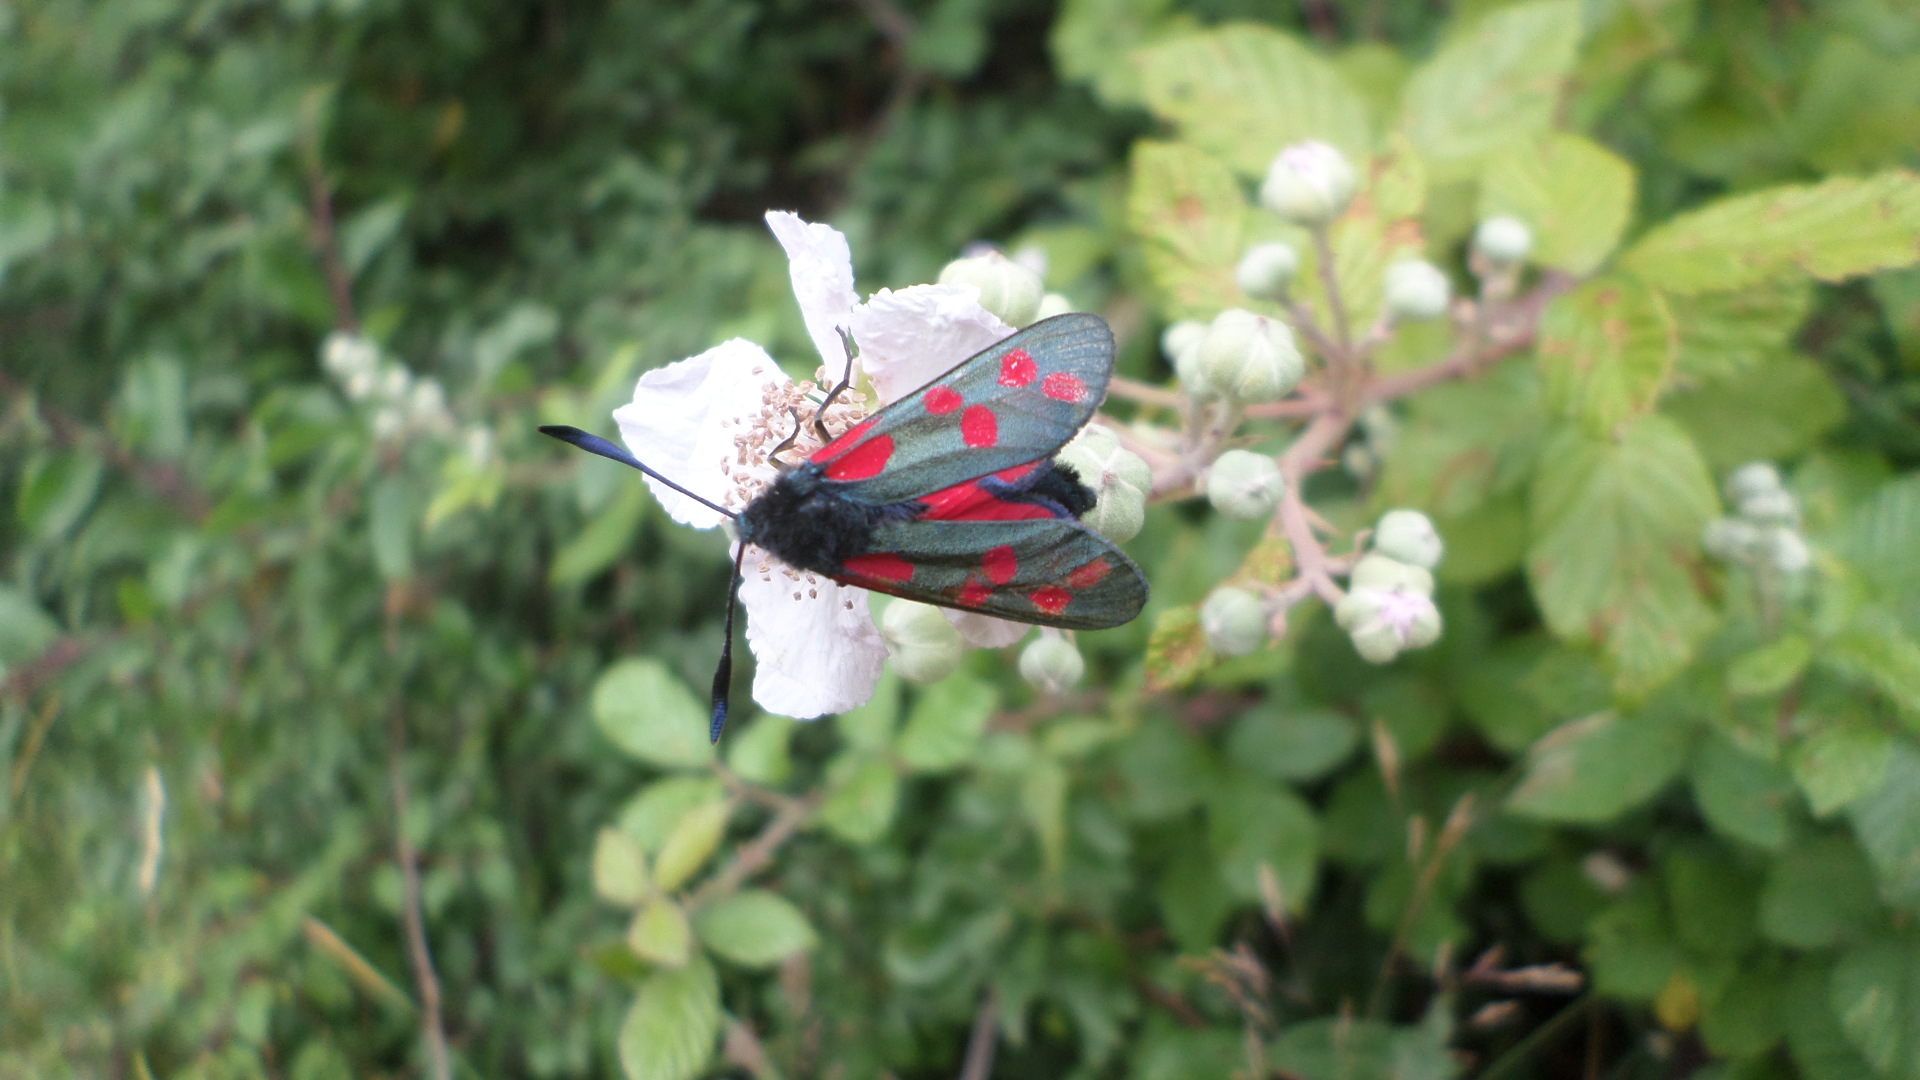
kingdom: Animalia
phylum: Arthropoda
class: Insecta
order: Lepidoptera
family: Zygaenidae
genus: Zygaena
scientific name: Zygaena filipendulae
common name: Six-spot burnet
